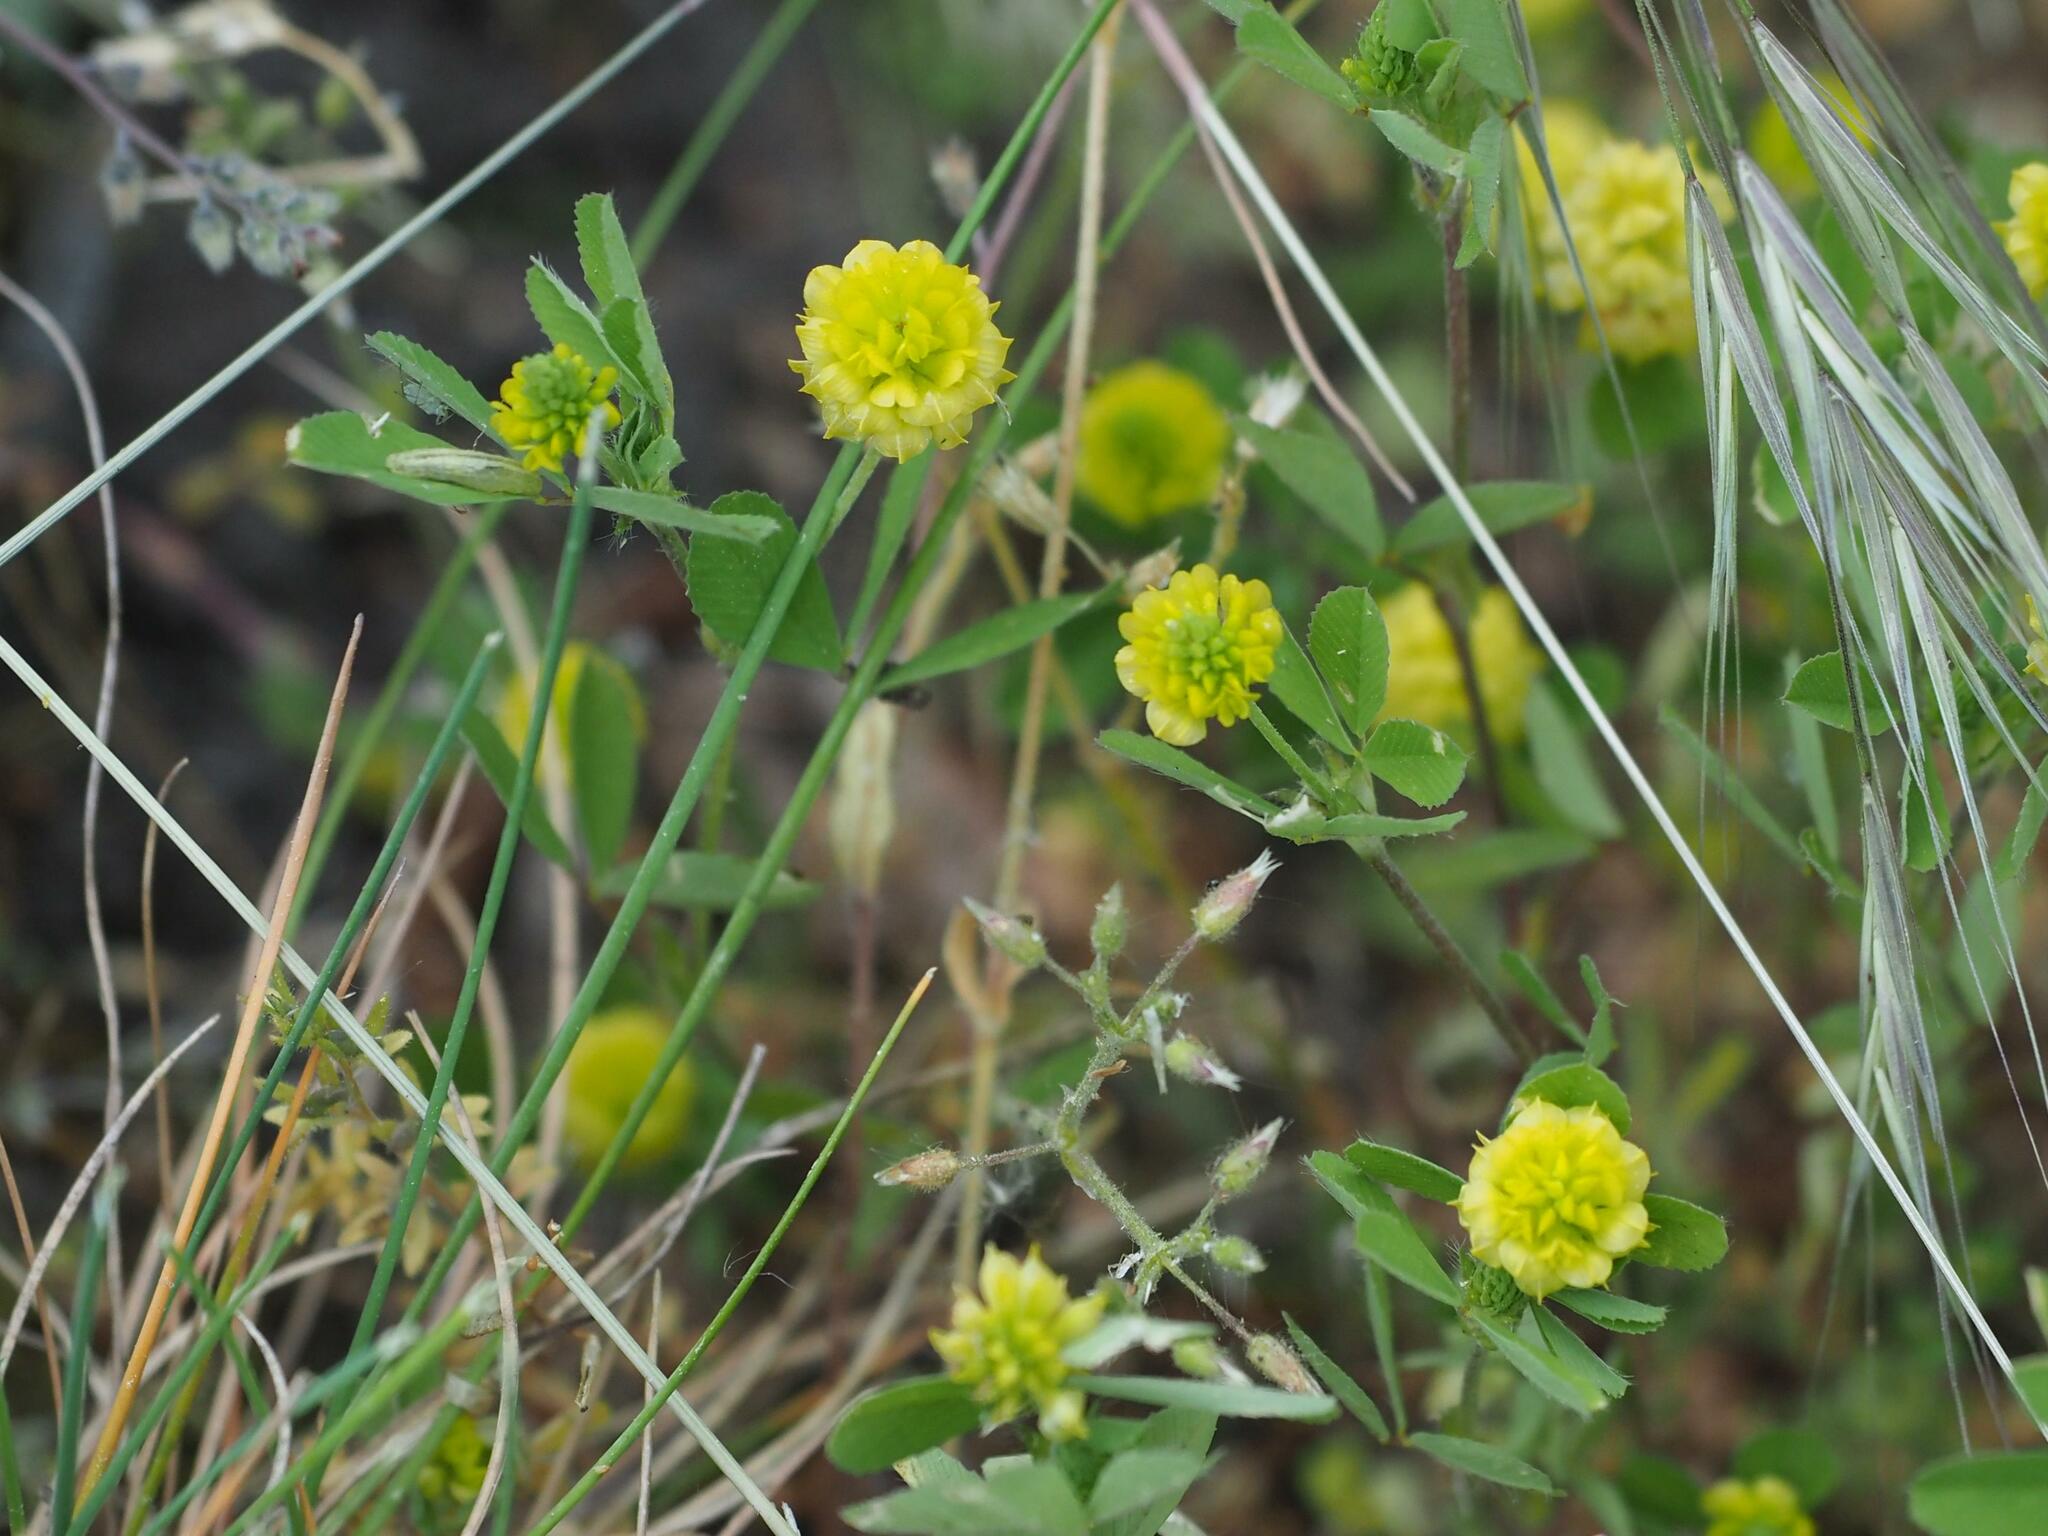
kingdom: Plantae
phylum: Tracheophyta
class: Magnoliopsida
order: Fabales
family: Fabaceae
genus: Trifolium
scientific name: Trifolium campestre
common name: Field clover
